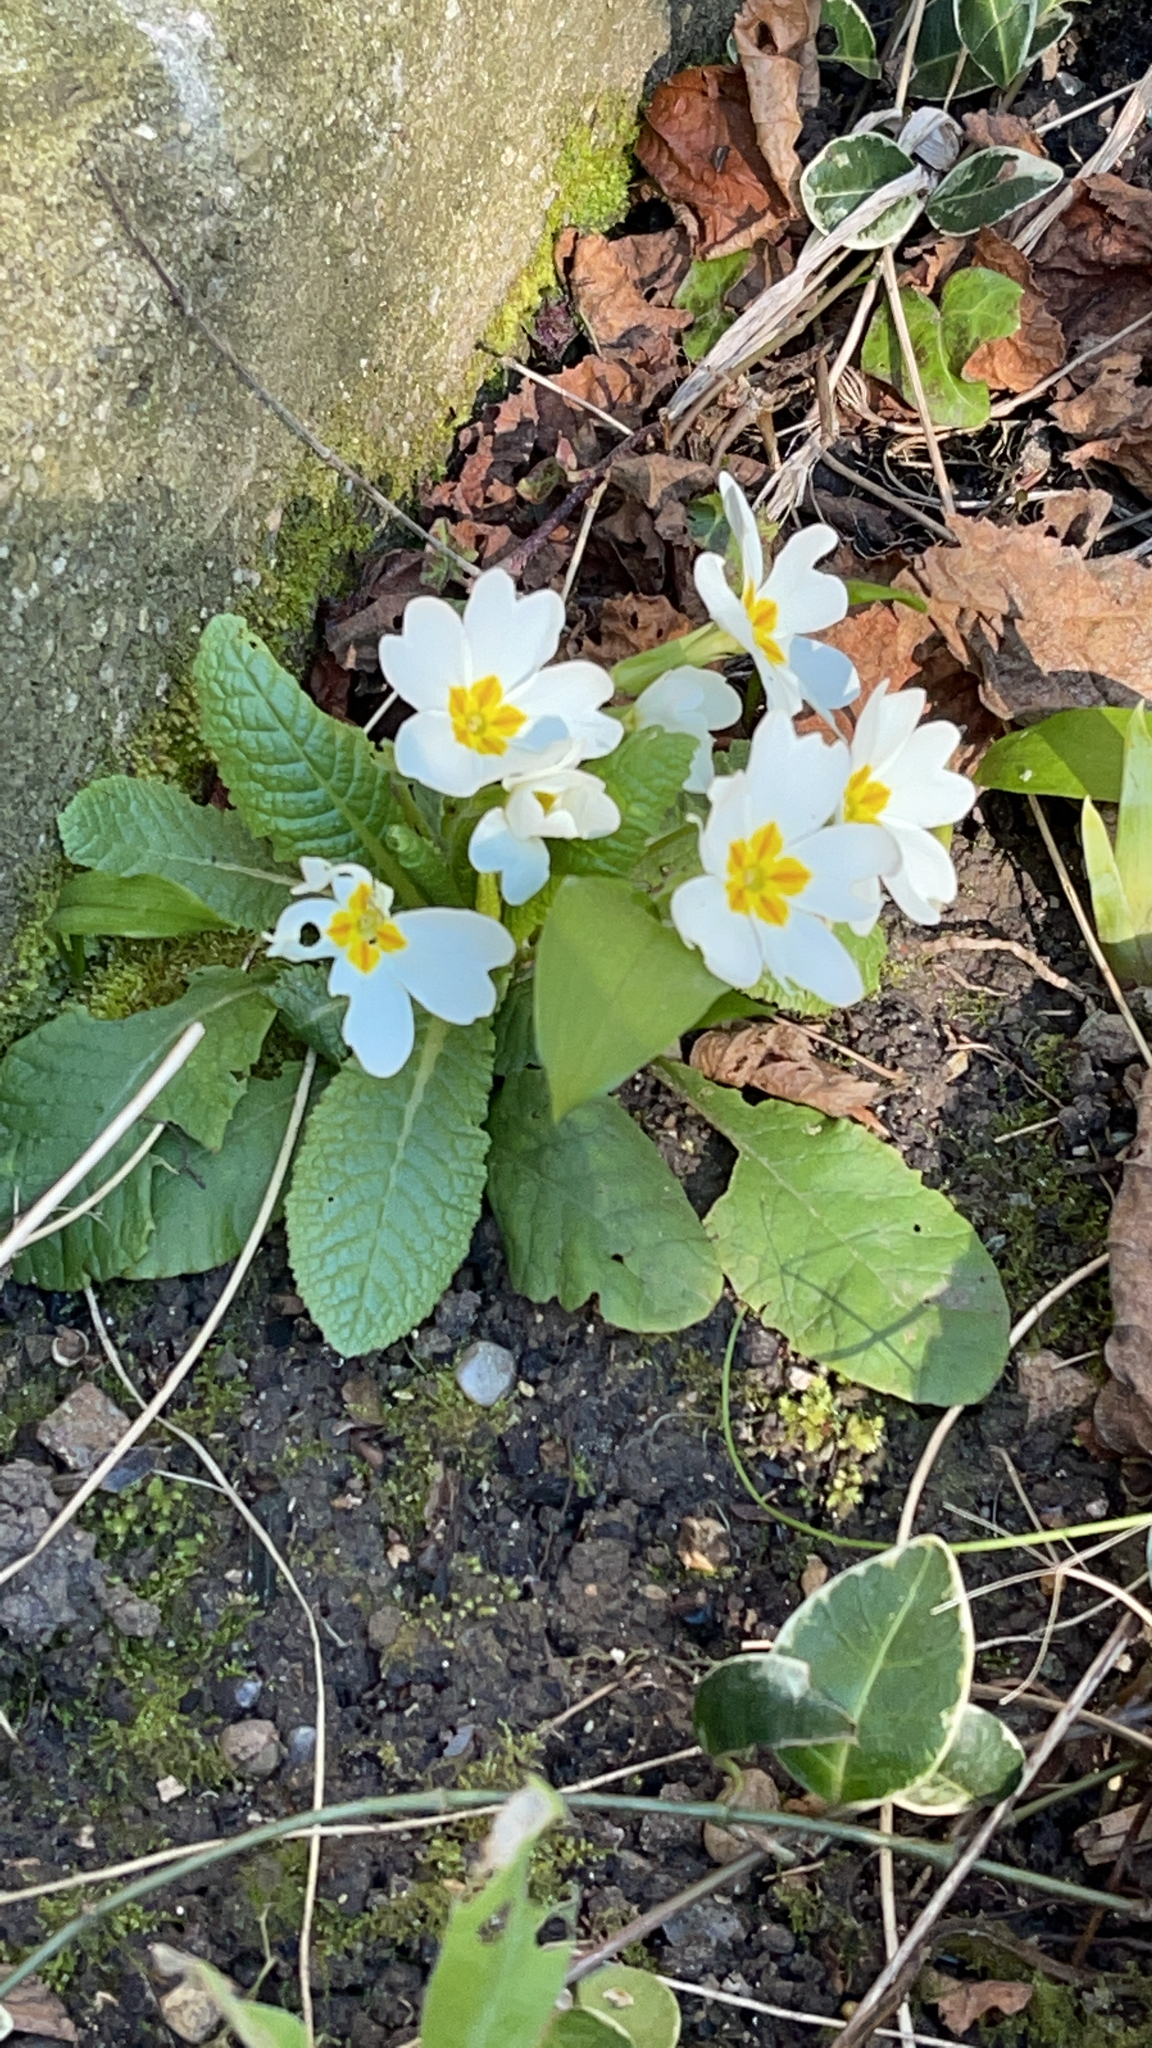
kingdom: Plantae
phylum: Tracheophyta
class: Magnoliopsida
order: Ericales
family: Primulaceae
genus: Primula
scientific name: Primula vulgaris
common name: Primrose
